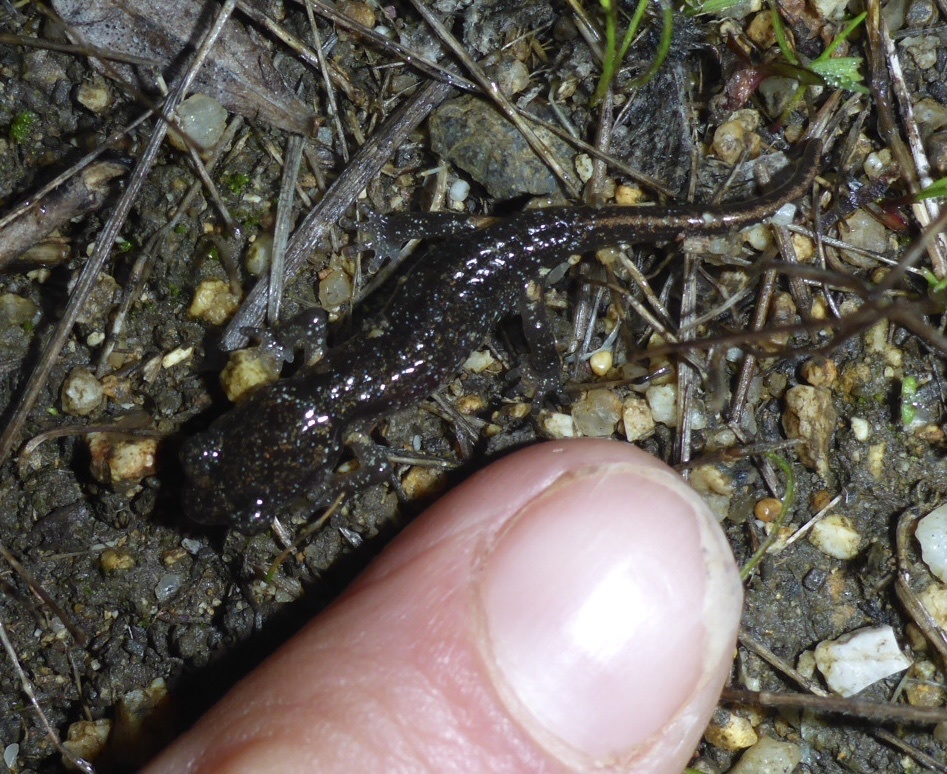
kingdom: Animalia
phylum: Chordata
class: Amphibia
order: Caudata
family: Plethodontidae
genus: Aneides
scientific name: Aneides lugubris
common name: Arboreal salamander
